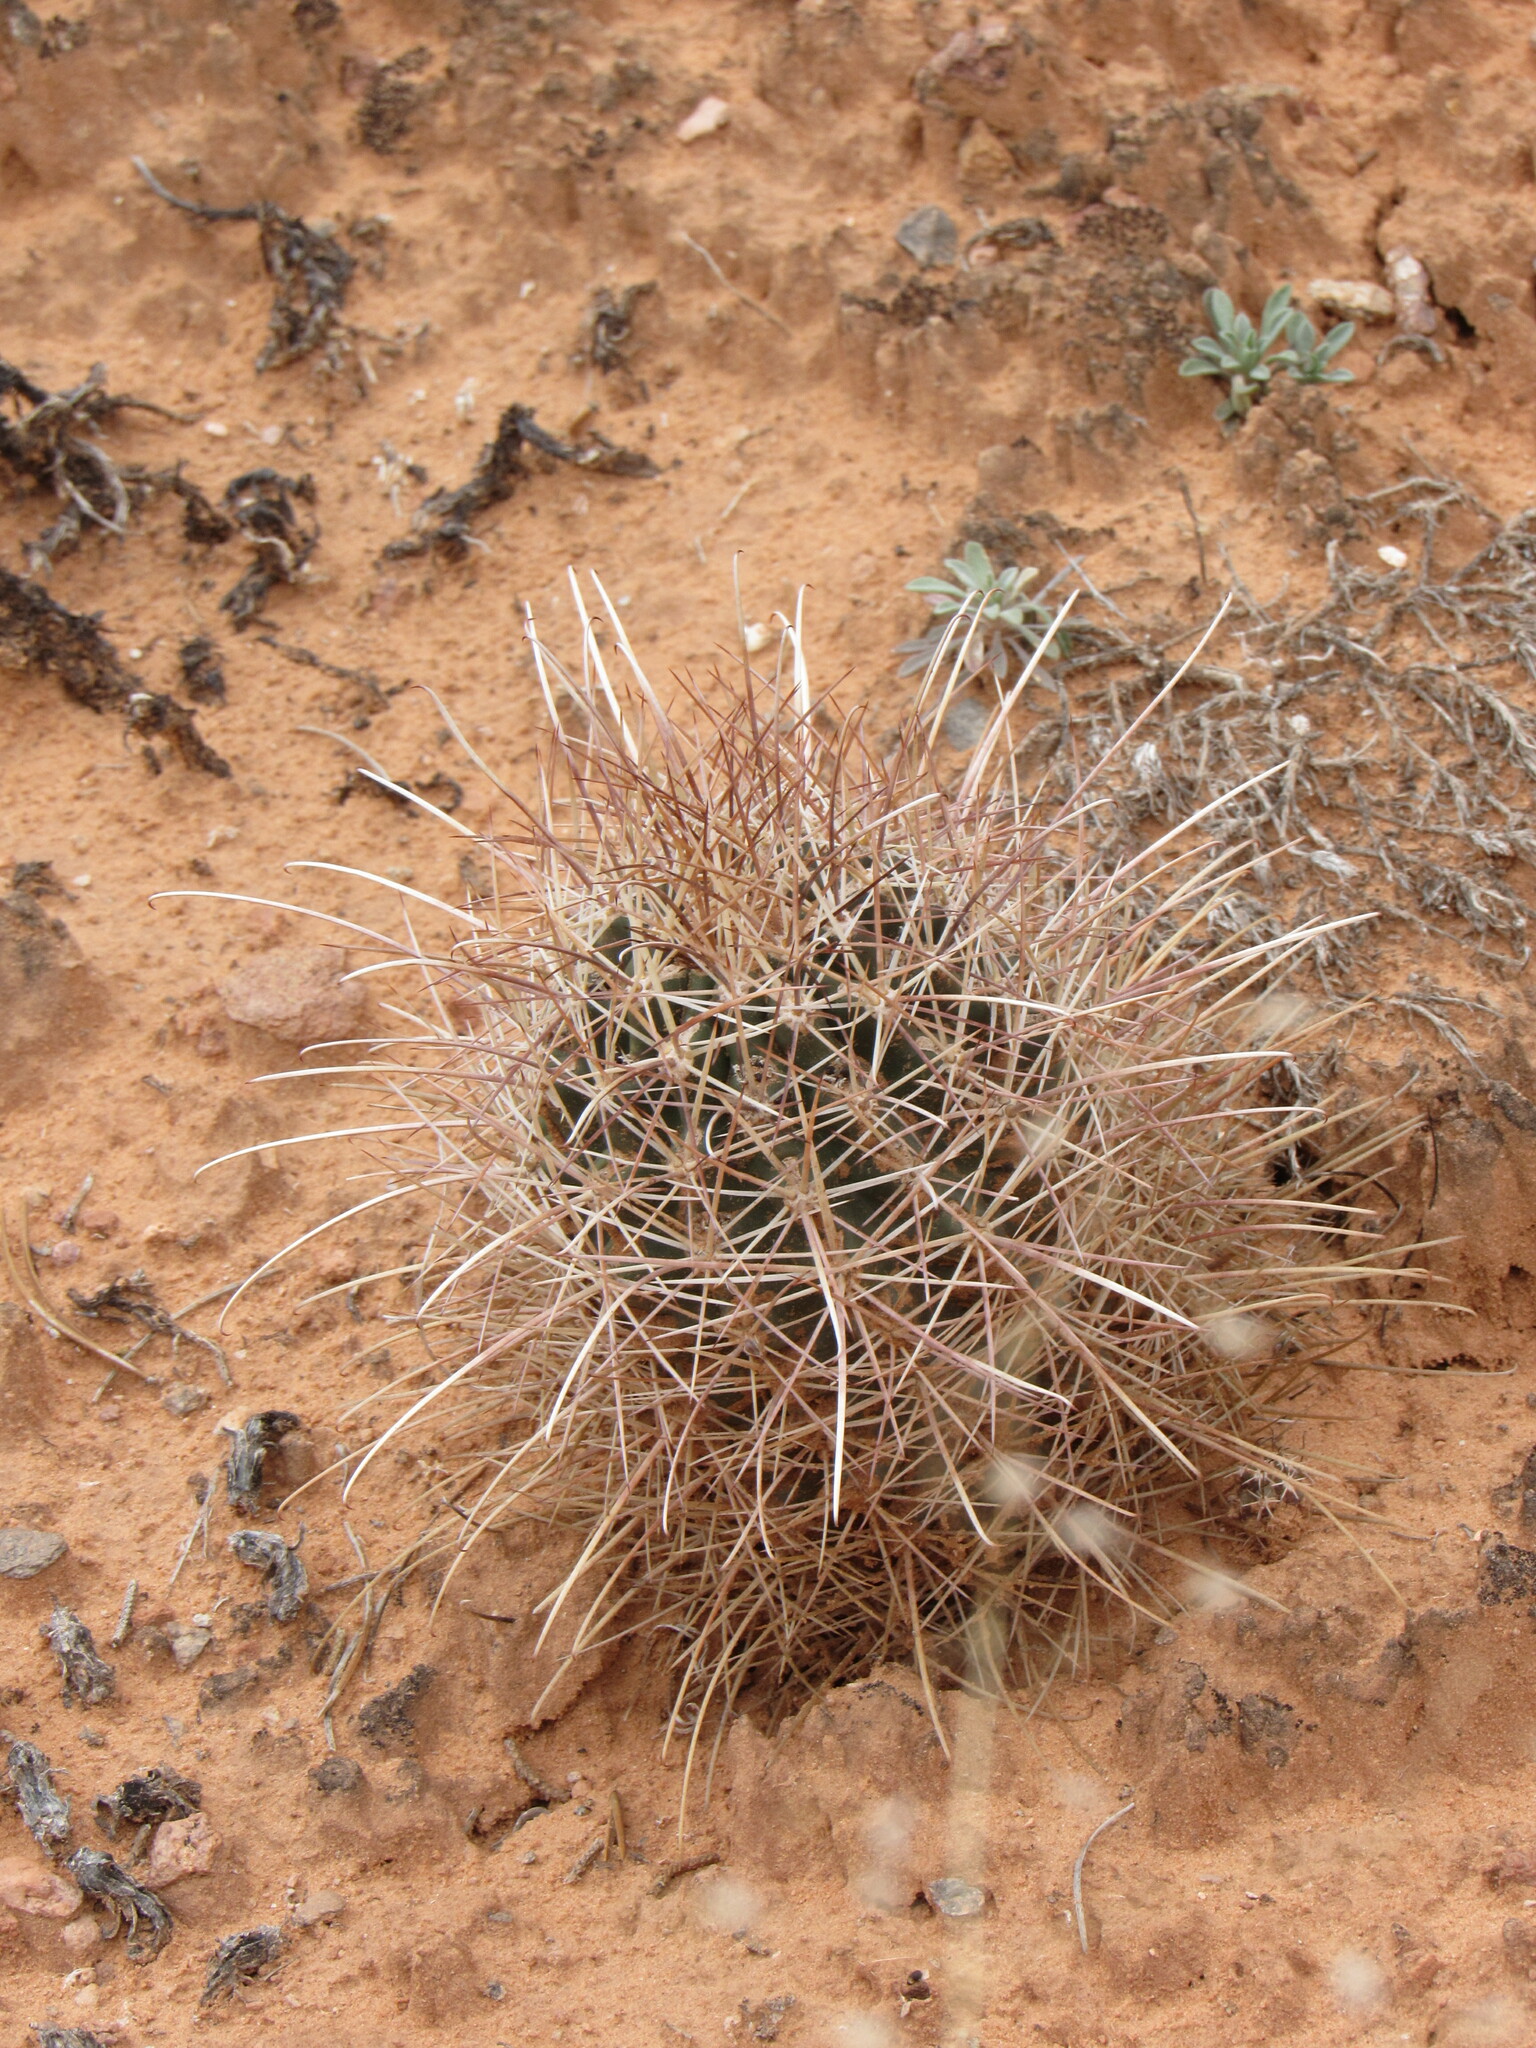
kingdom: Plantae
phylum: Tracheophyta
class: Magnoliopsida
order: Caryophyllales
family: Cactaceae
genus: Sclerocactus
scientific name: Sclerocactus parviflorus
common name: Small-flower fishhook cactus
